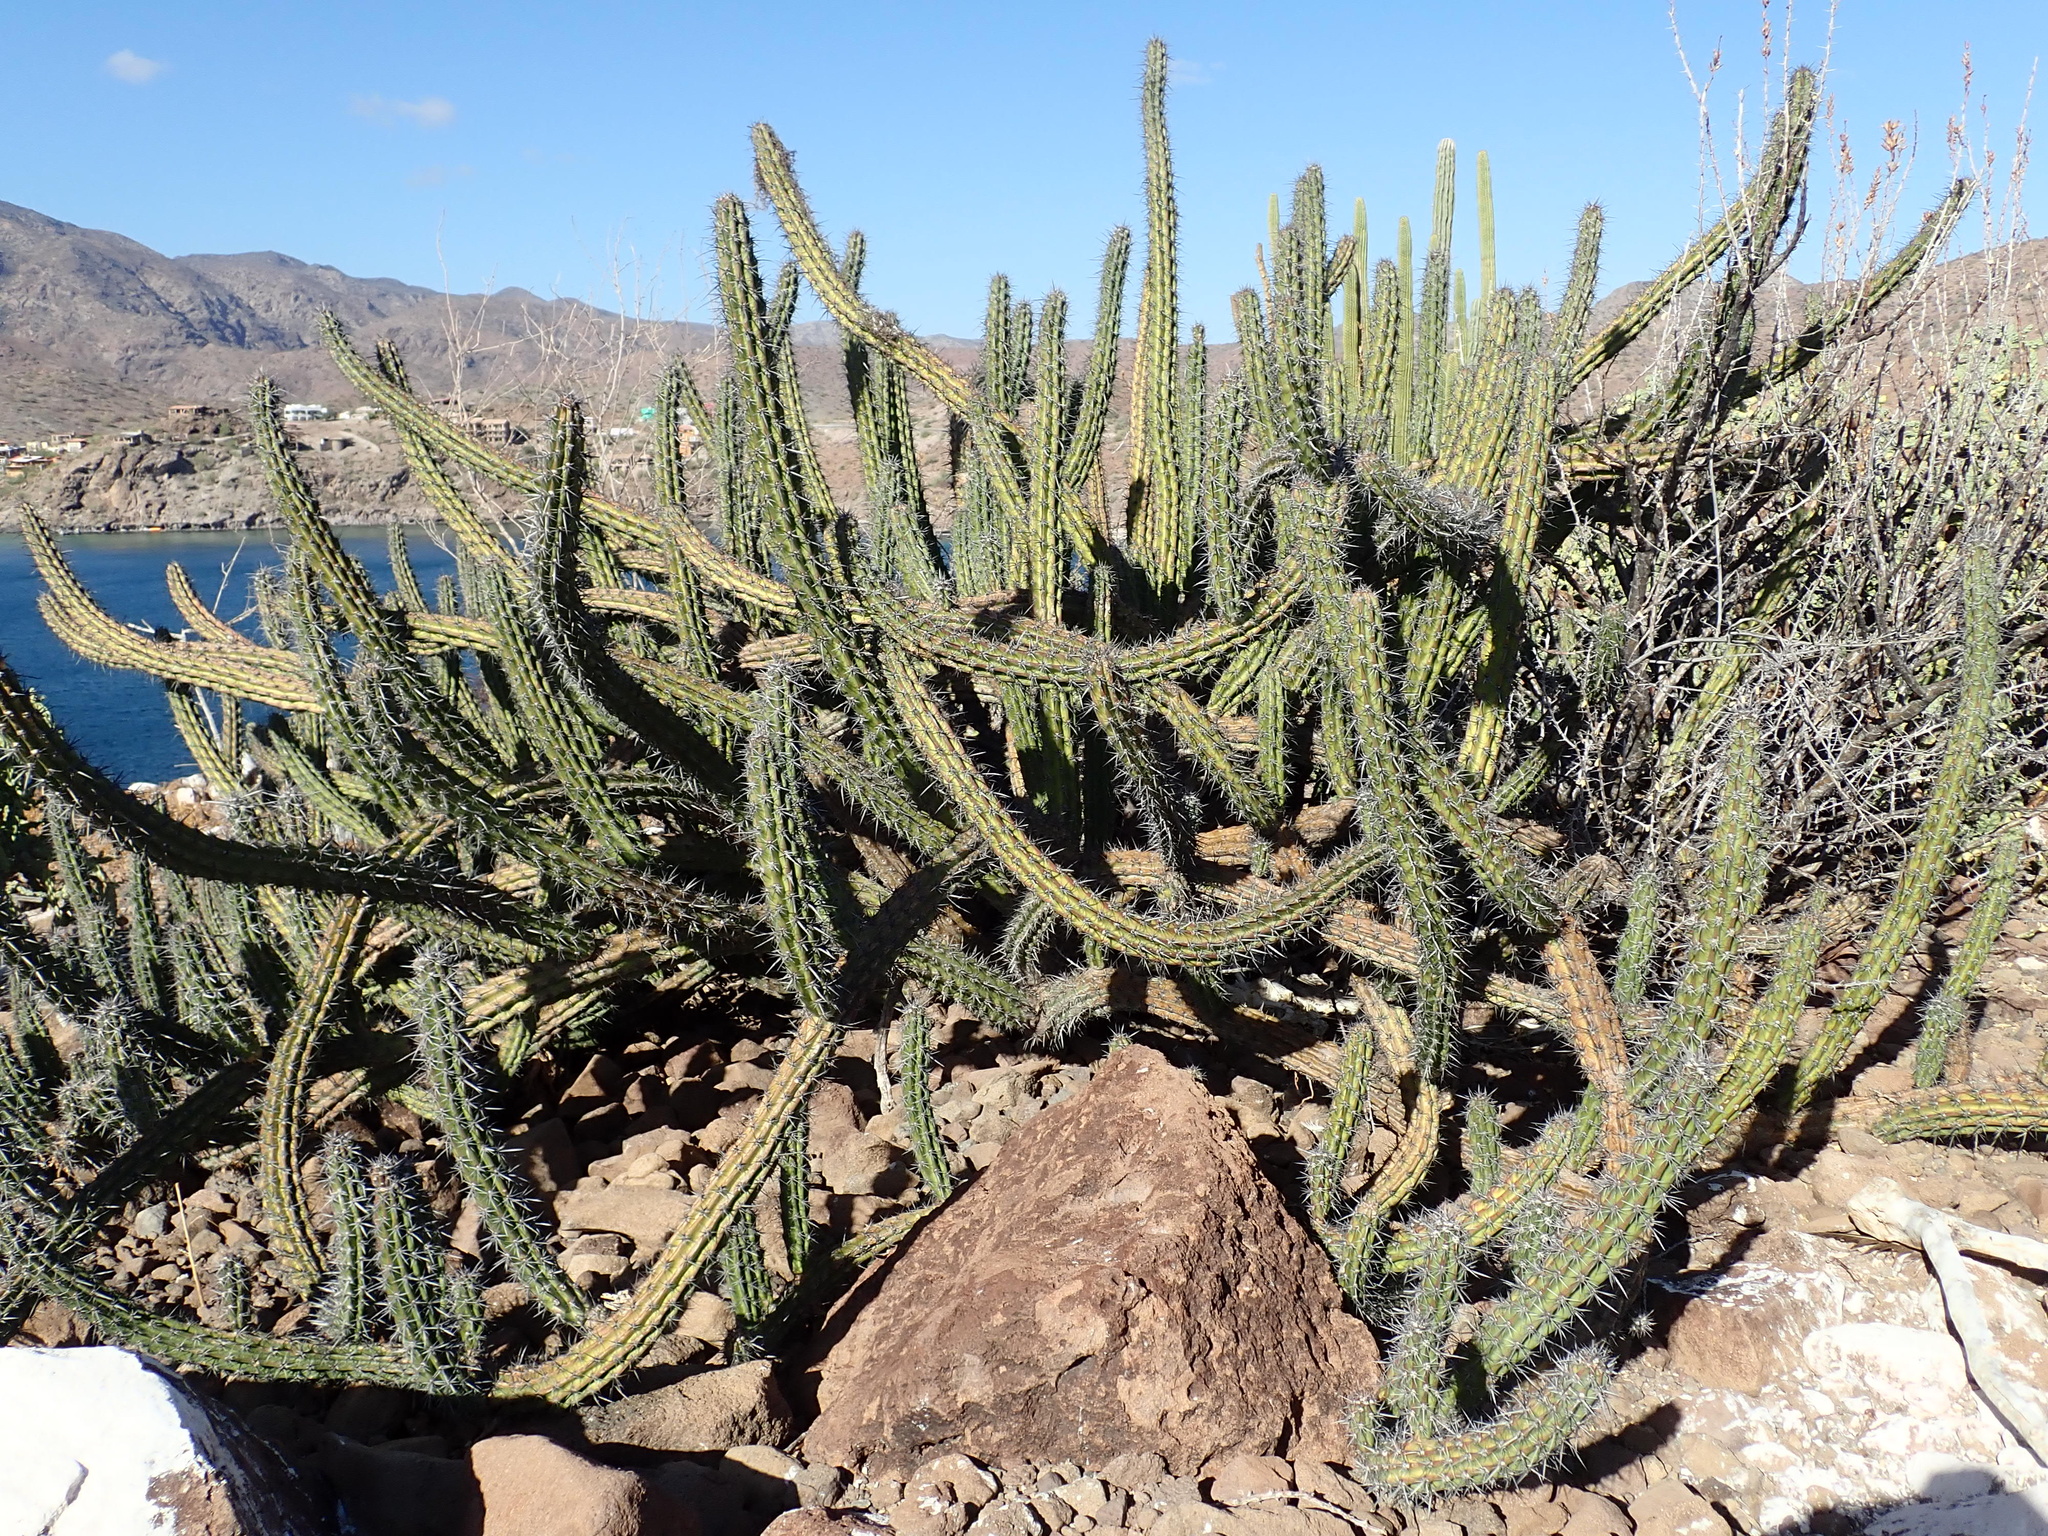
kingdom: Plantae
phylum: Tracheophyta
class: Magnoliopsida
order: Caryophyllales
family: Cactaceae
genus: Stenocereus
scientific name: Stenocereus gummosus
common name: Dagger cactus
